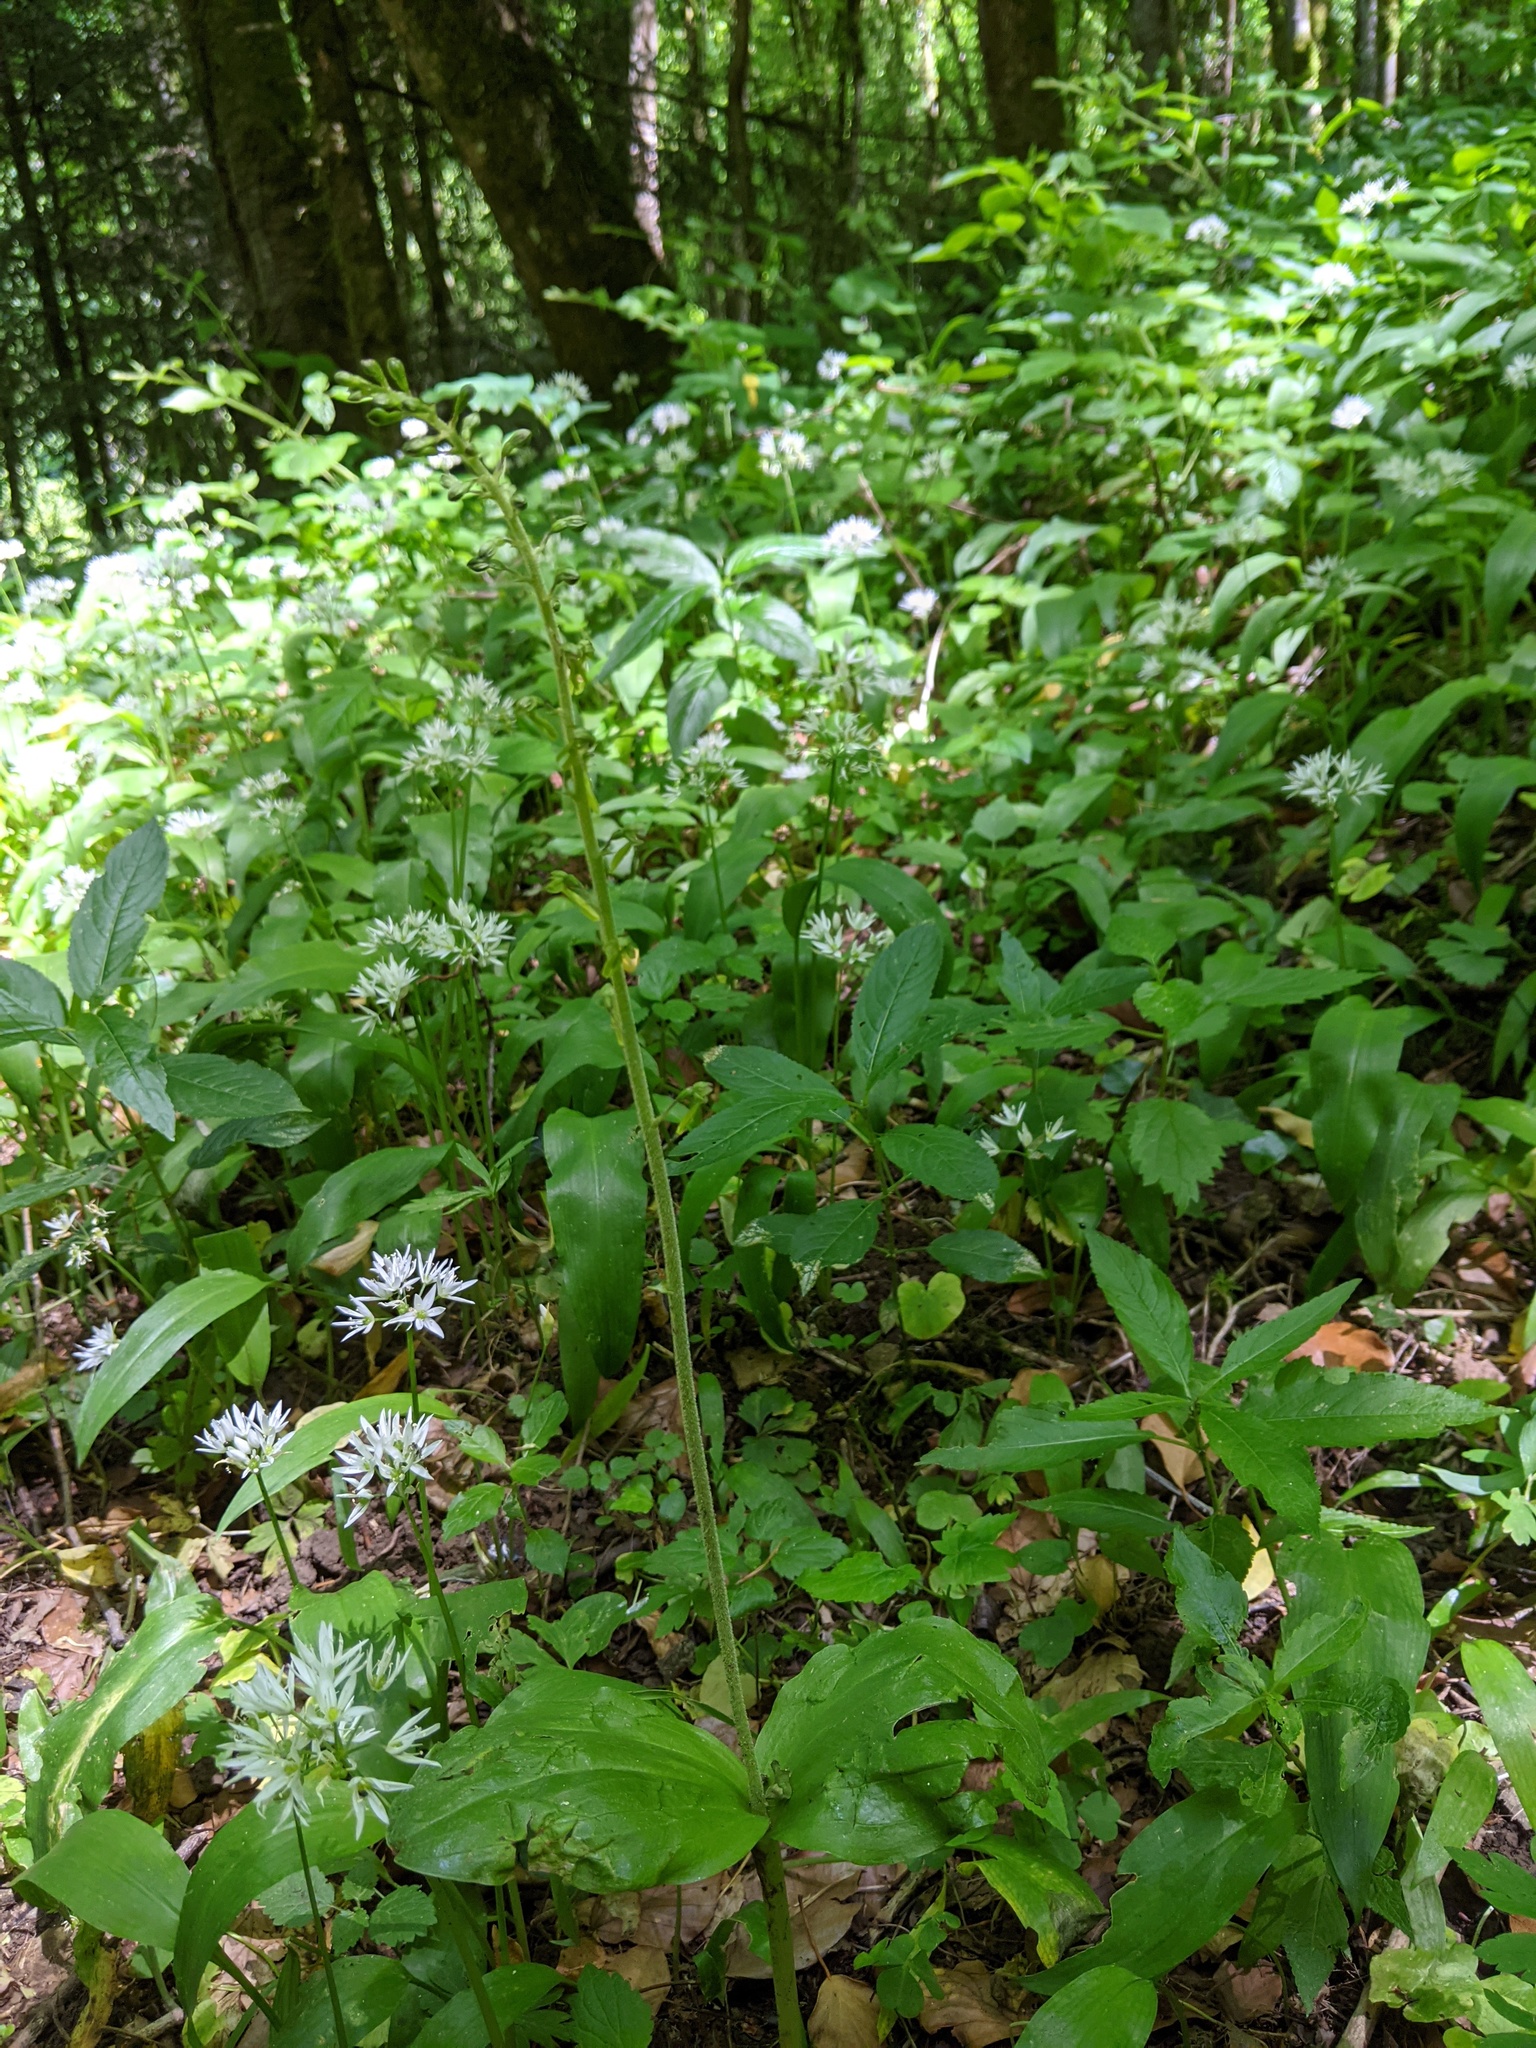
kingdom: Plantae
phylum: Tracheophyta
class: Liliopsida
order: Asparagales
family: Orchidaceae
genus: Neottia
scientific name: Neottia ovata
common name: Common twayblade
